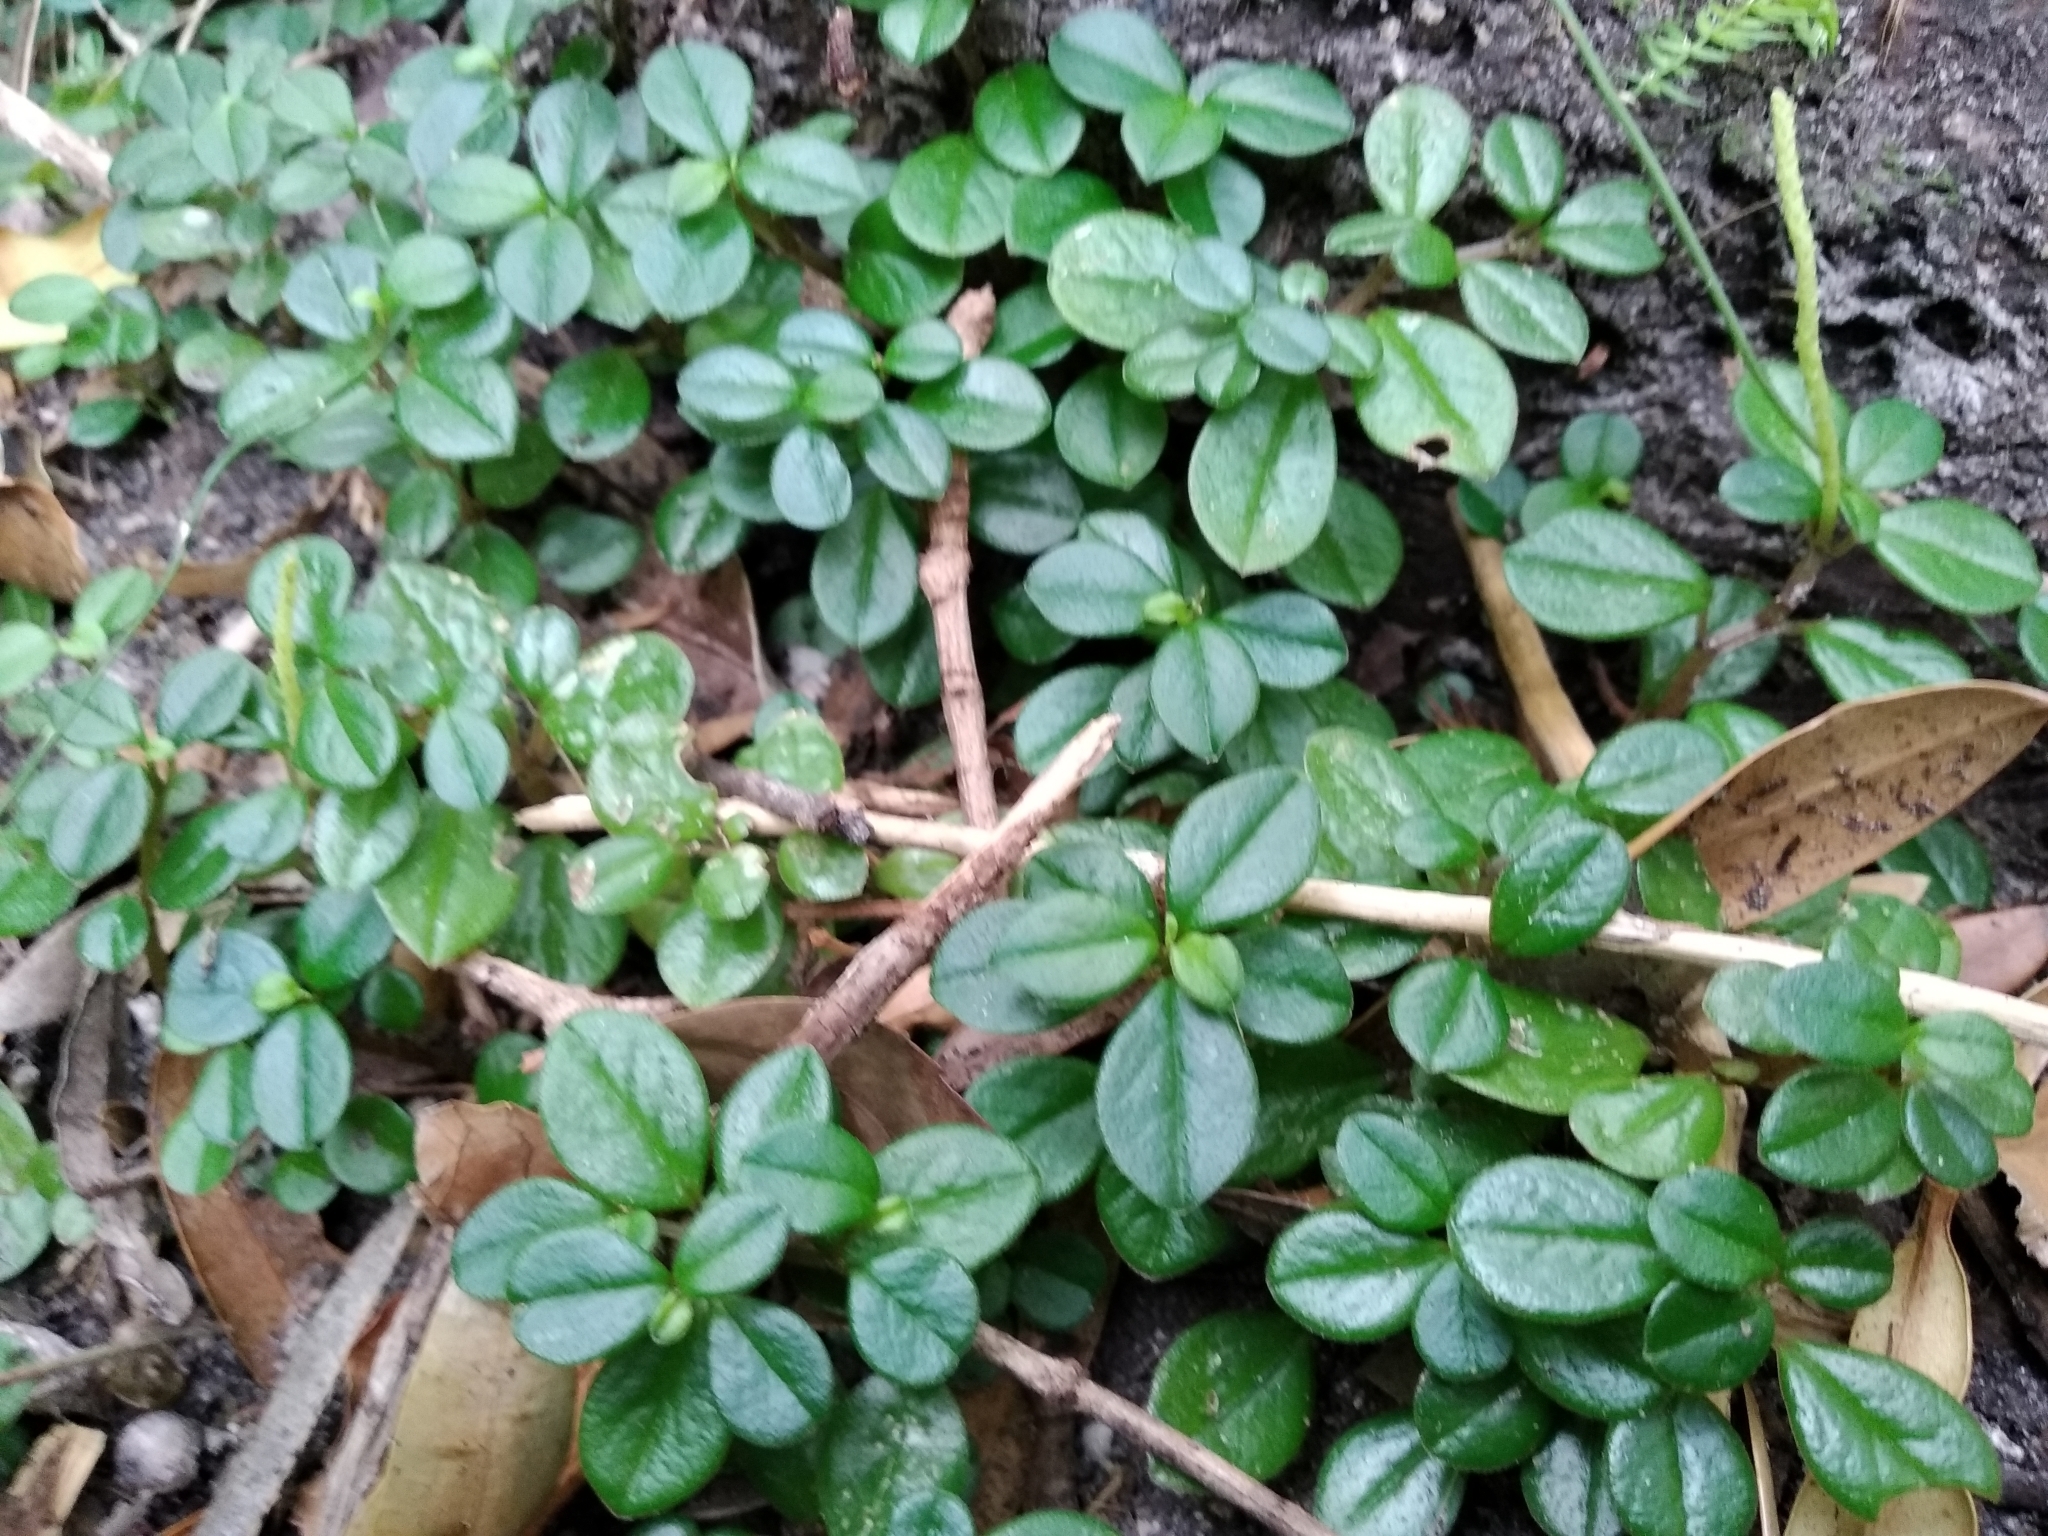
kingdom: Plantae
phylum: Tracheophyta
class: Magnoliopsida
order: Piperales
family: Piperaceae
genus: Peperomia
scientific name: Peperomia retusa
